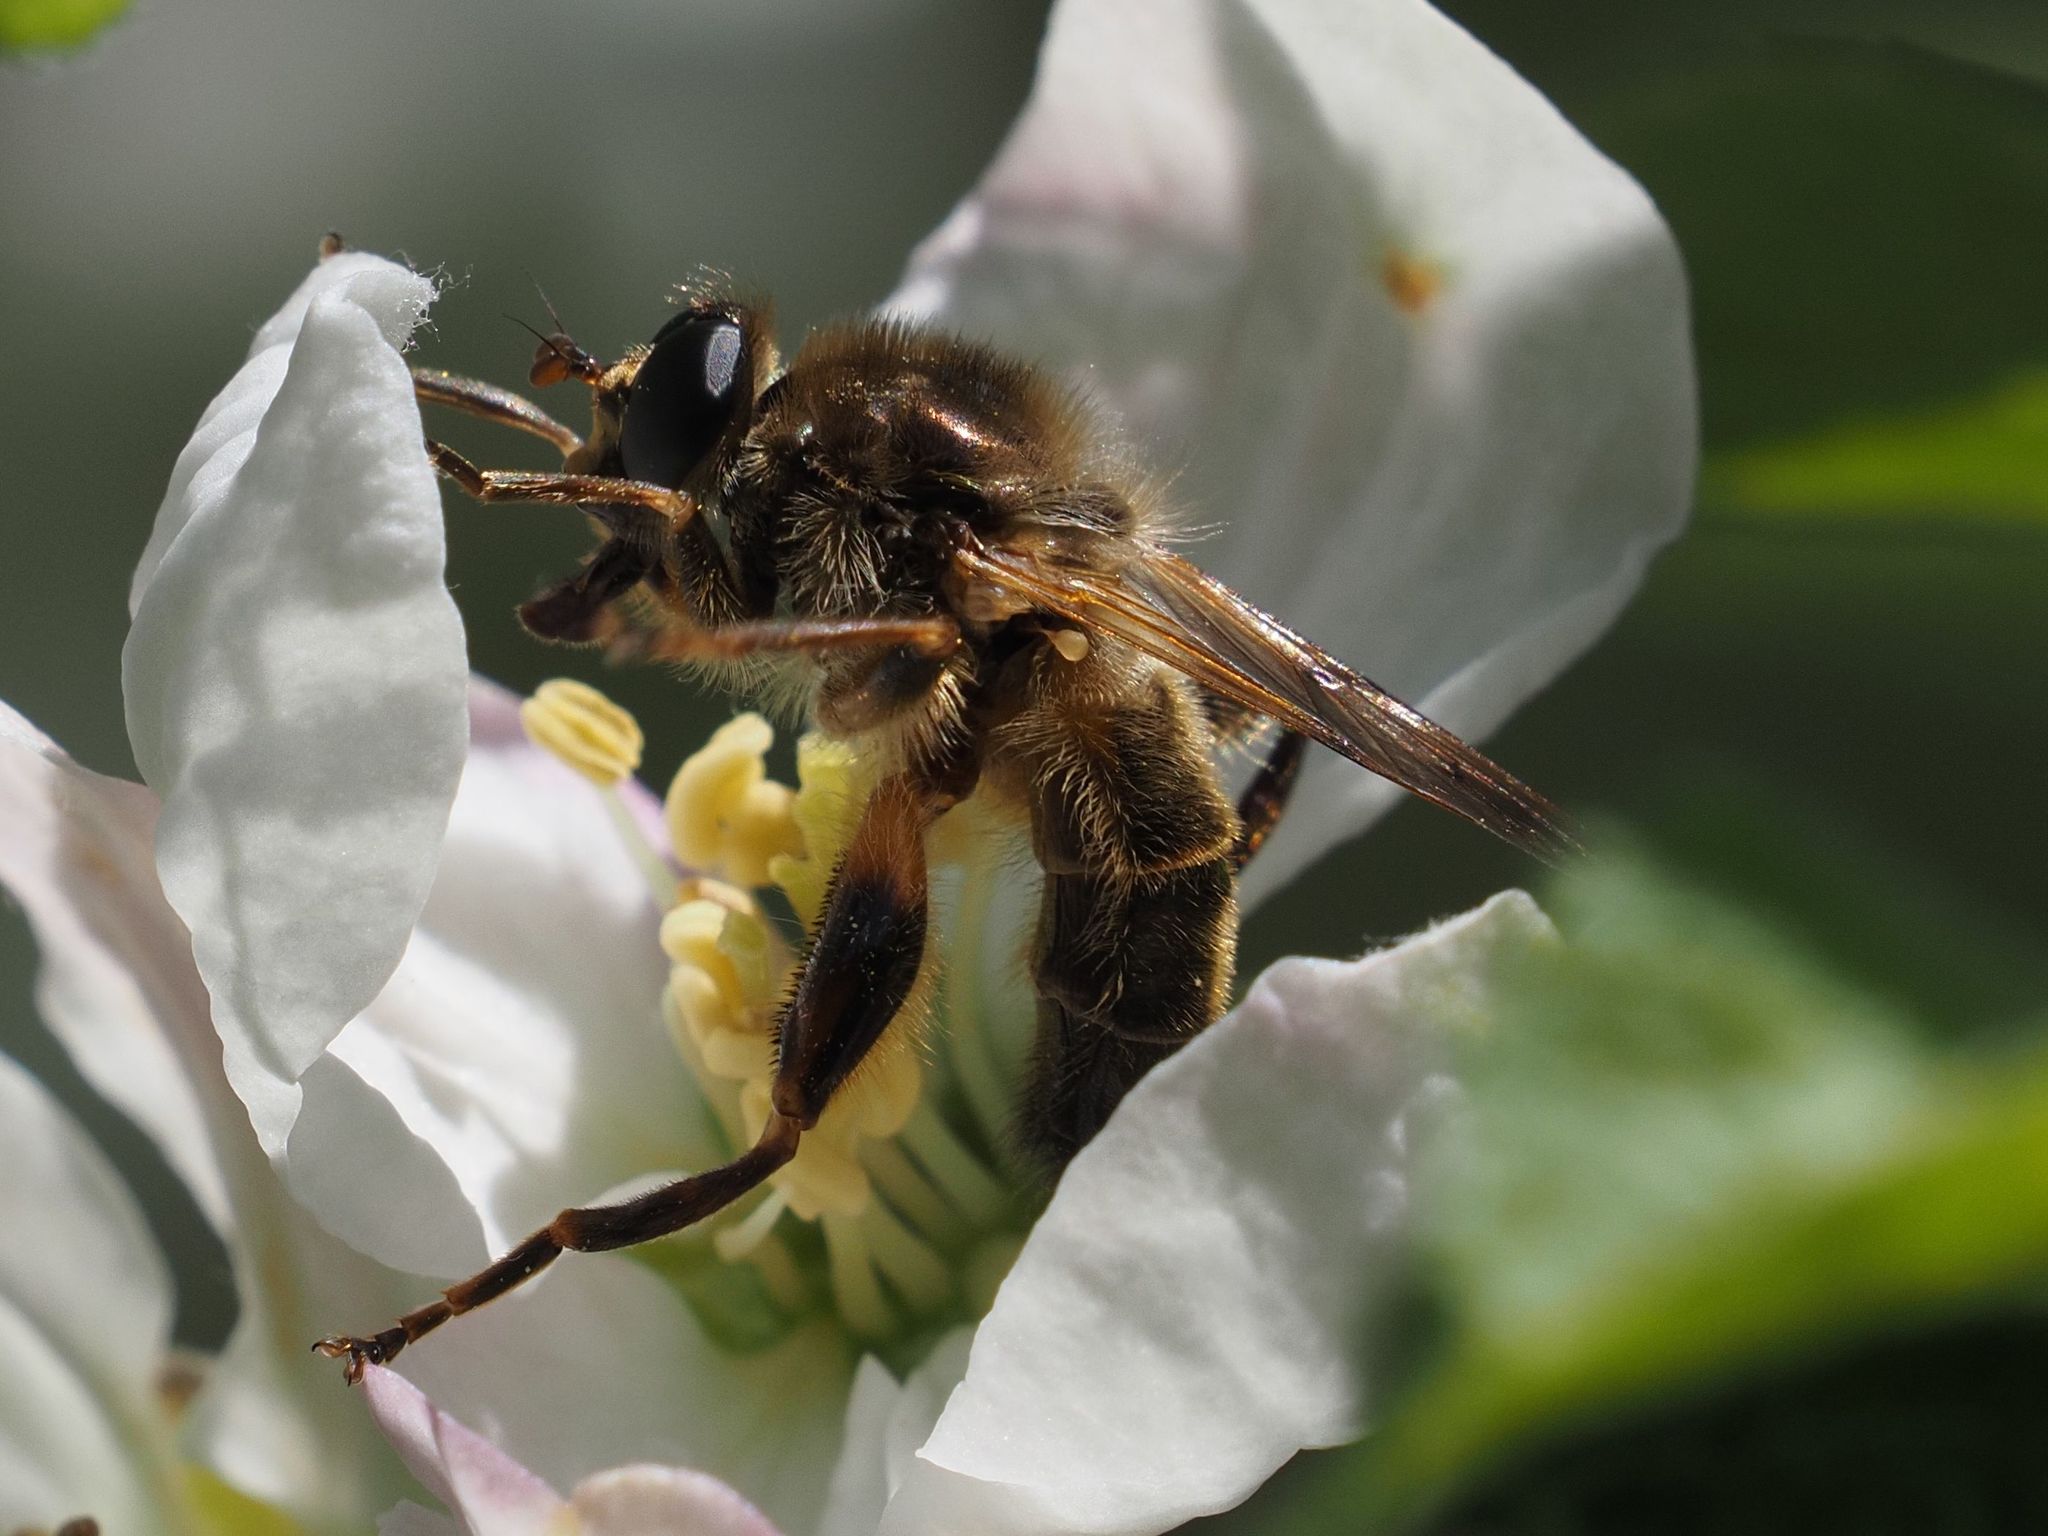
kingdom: Animalia
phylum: Arthropoda
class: Insecta
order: Diptera
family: Syrphidae
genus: Brachypalpus
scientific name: Brachypalpus valgus
